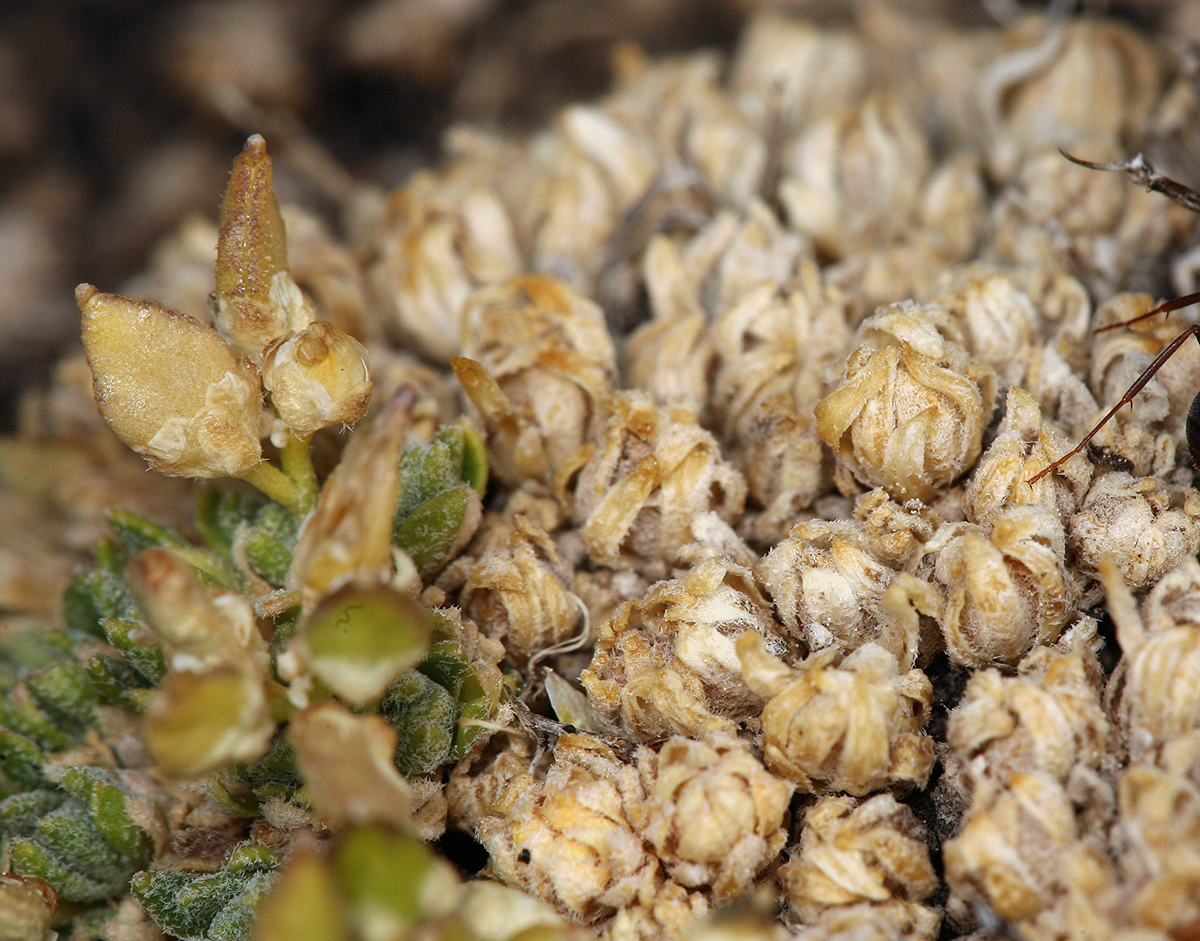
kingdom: Plantae
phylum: Tracheophyta
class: Magnoliopsida
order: Brassicales
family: Brassicaceae
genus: Draba
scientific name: Draba oligosperma
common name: Few-seed draba
